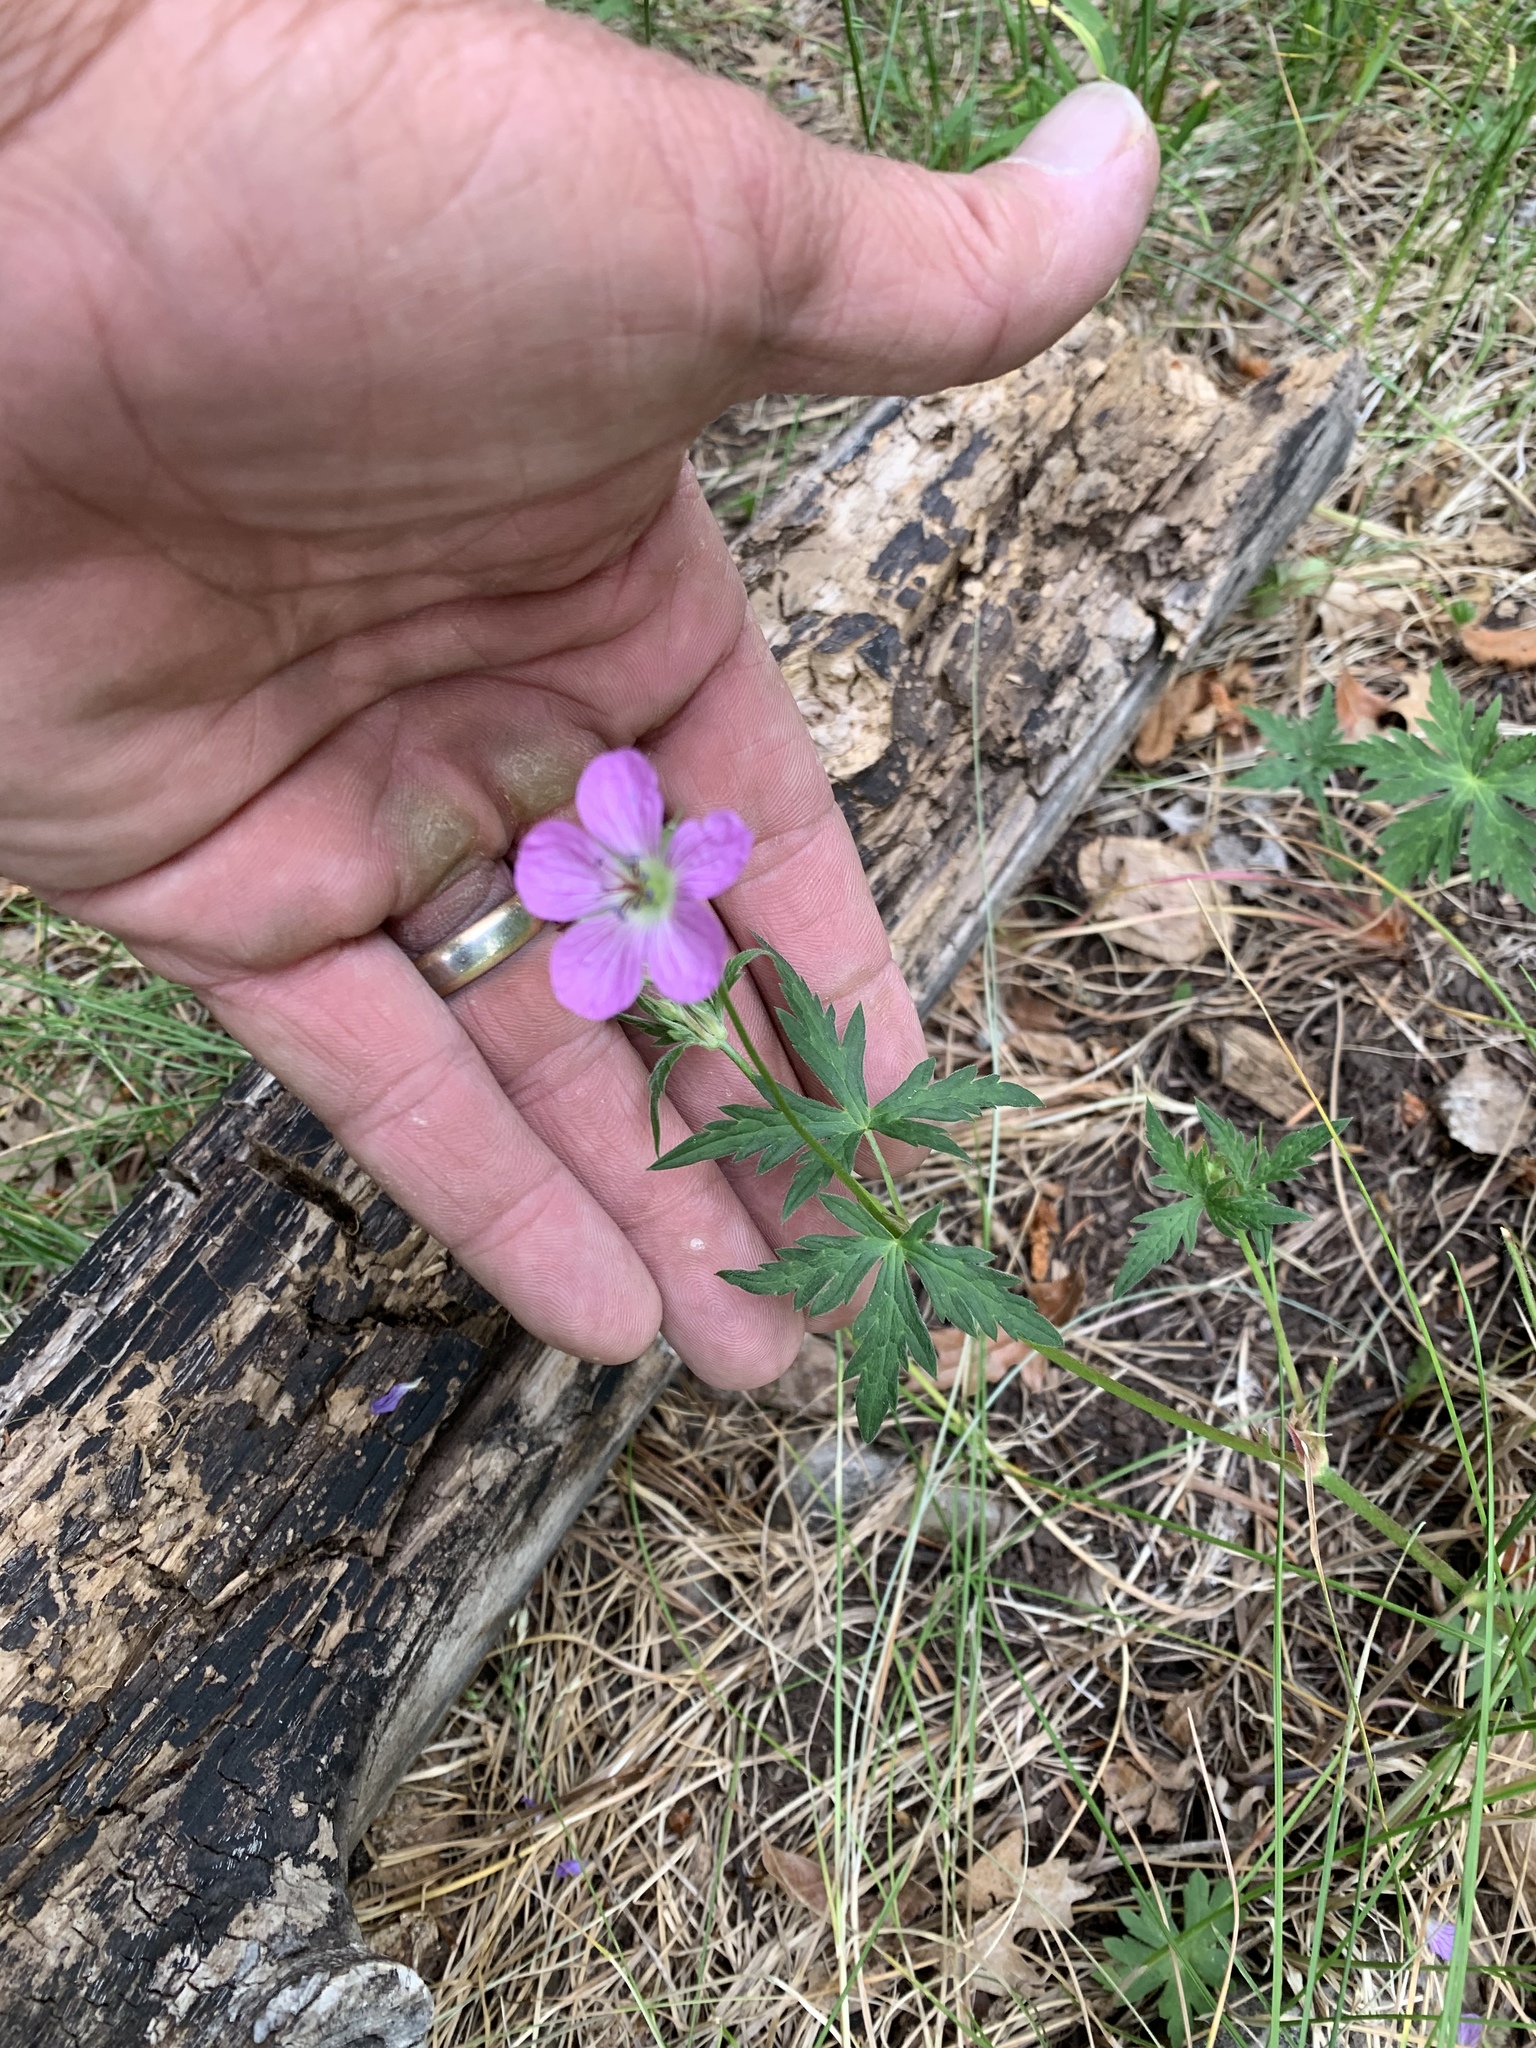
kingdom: Plantae
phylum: Tracheophyta
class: Magnoliopsida
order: Geraniales
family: Geraniaceae
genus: Geranium
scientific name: Geranium richardsonii
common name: Richardson's crane's-bill
